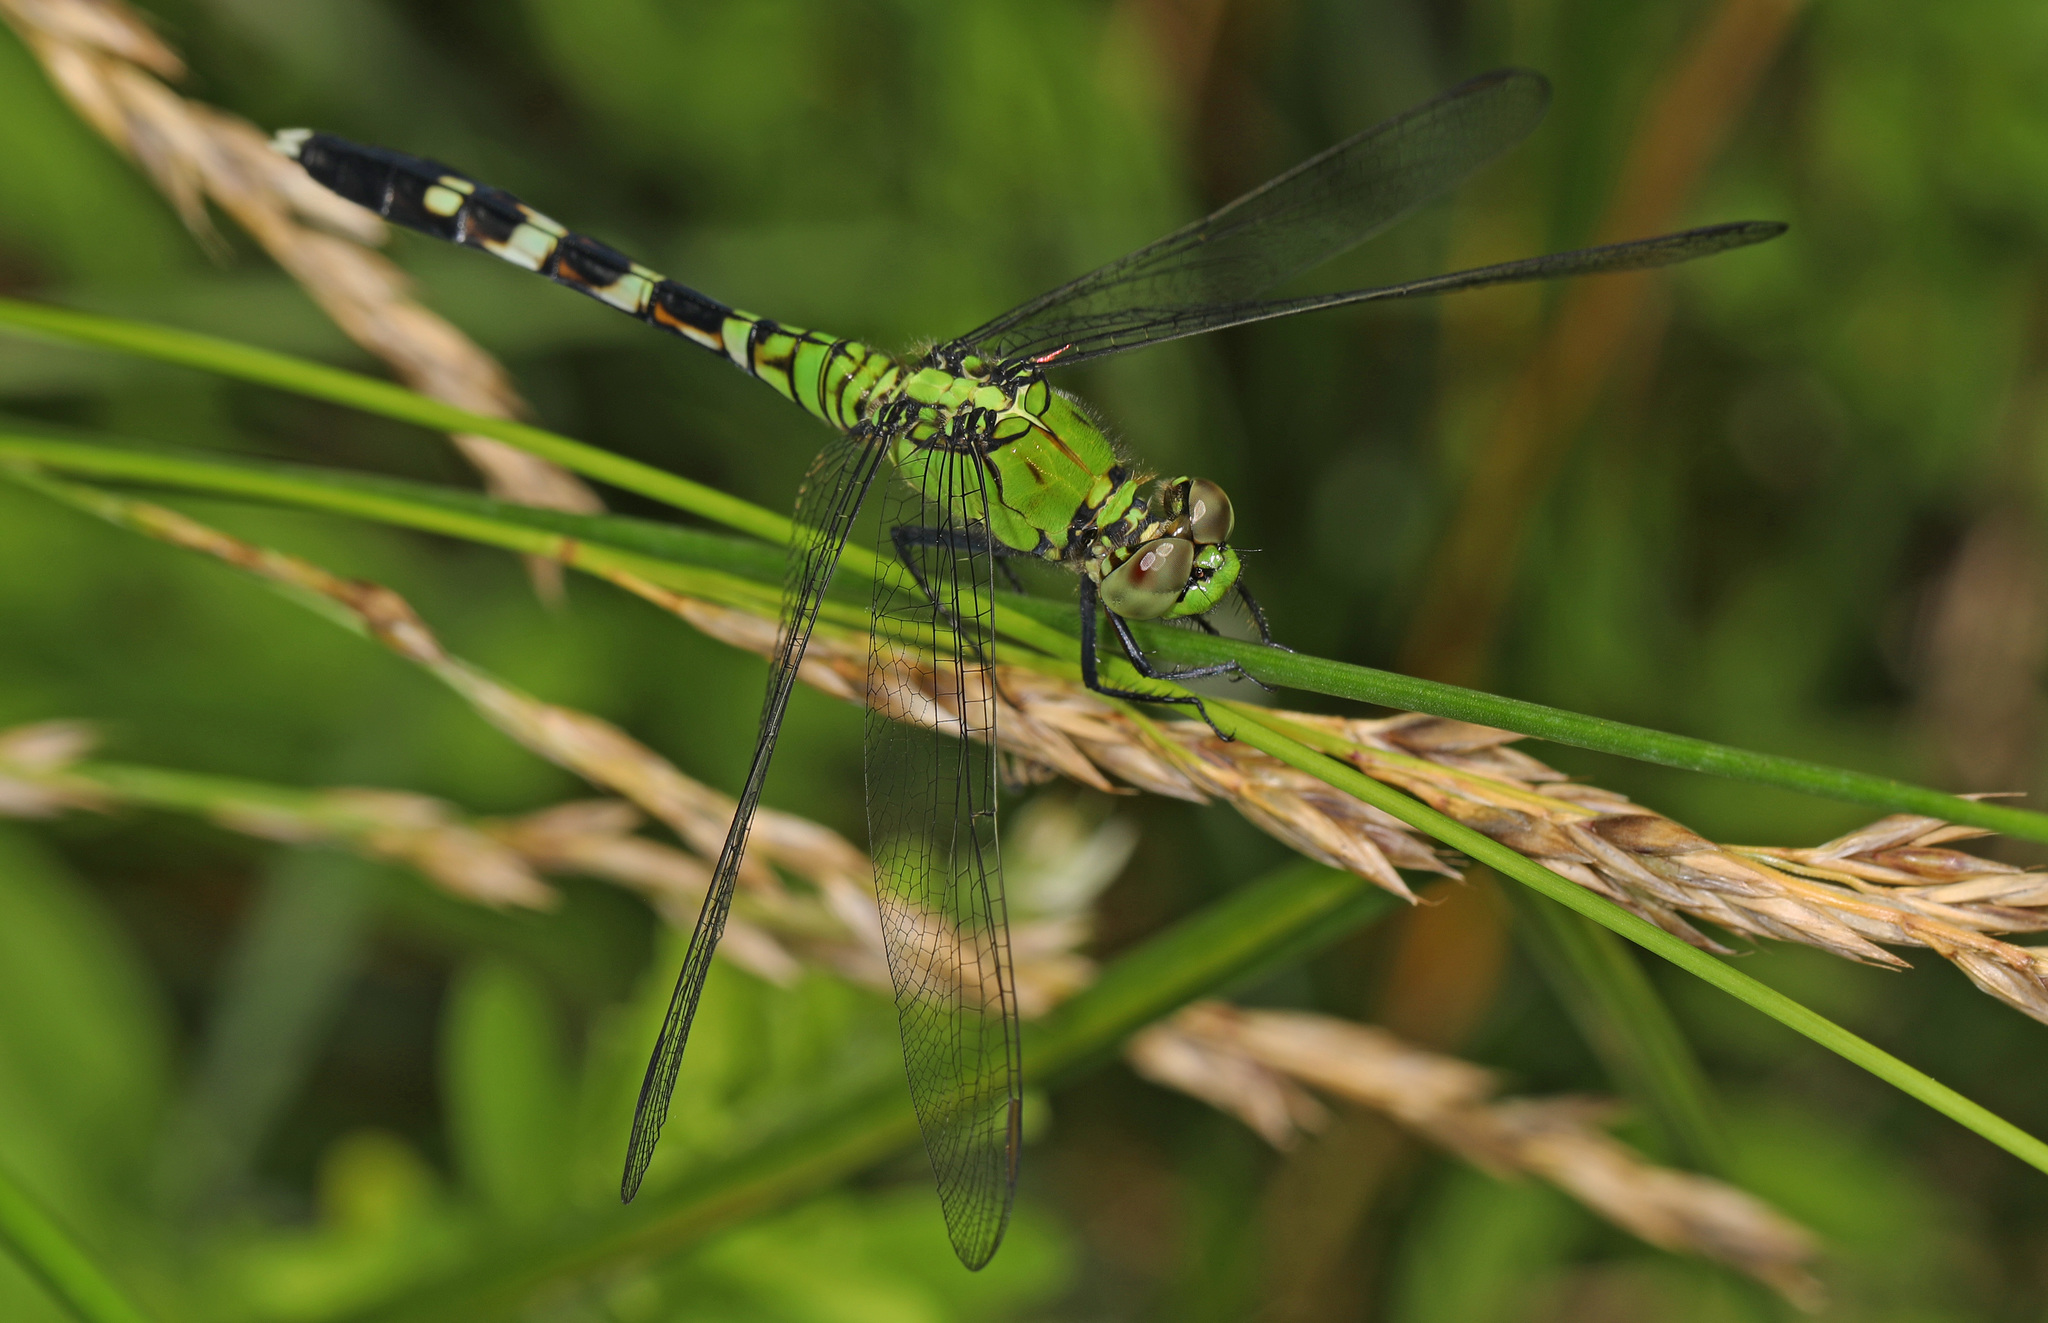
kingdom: Animalia
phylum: Arthropoda
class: Insecta
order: Odonata
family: Libellulidae
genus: Erythemis
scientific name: Erythemis simplicicollis
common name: Eastern pondhawk
